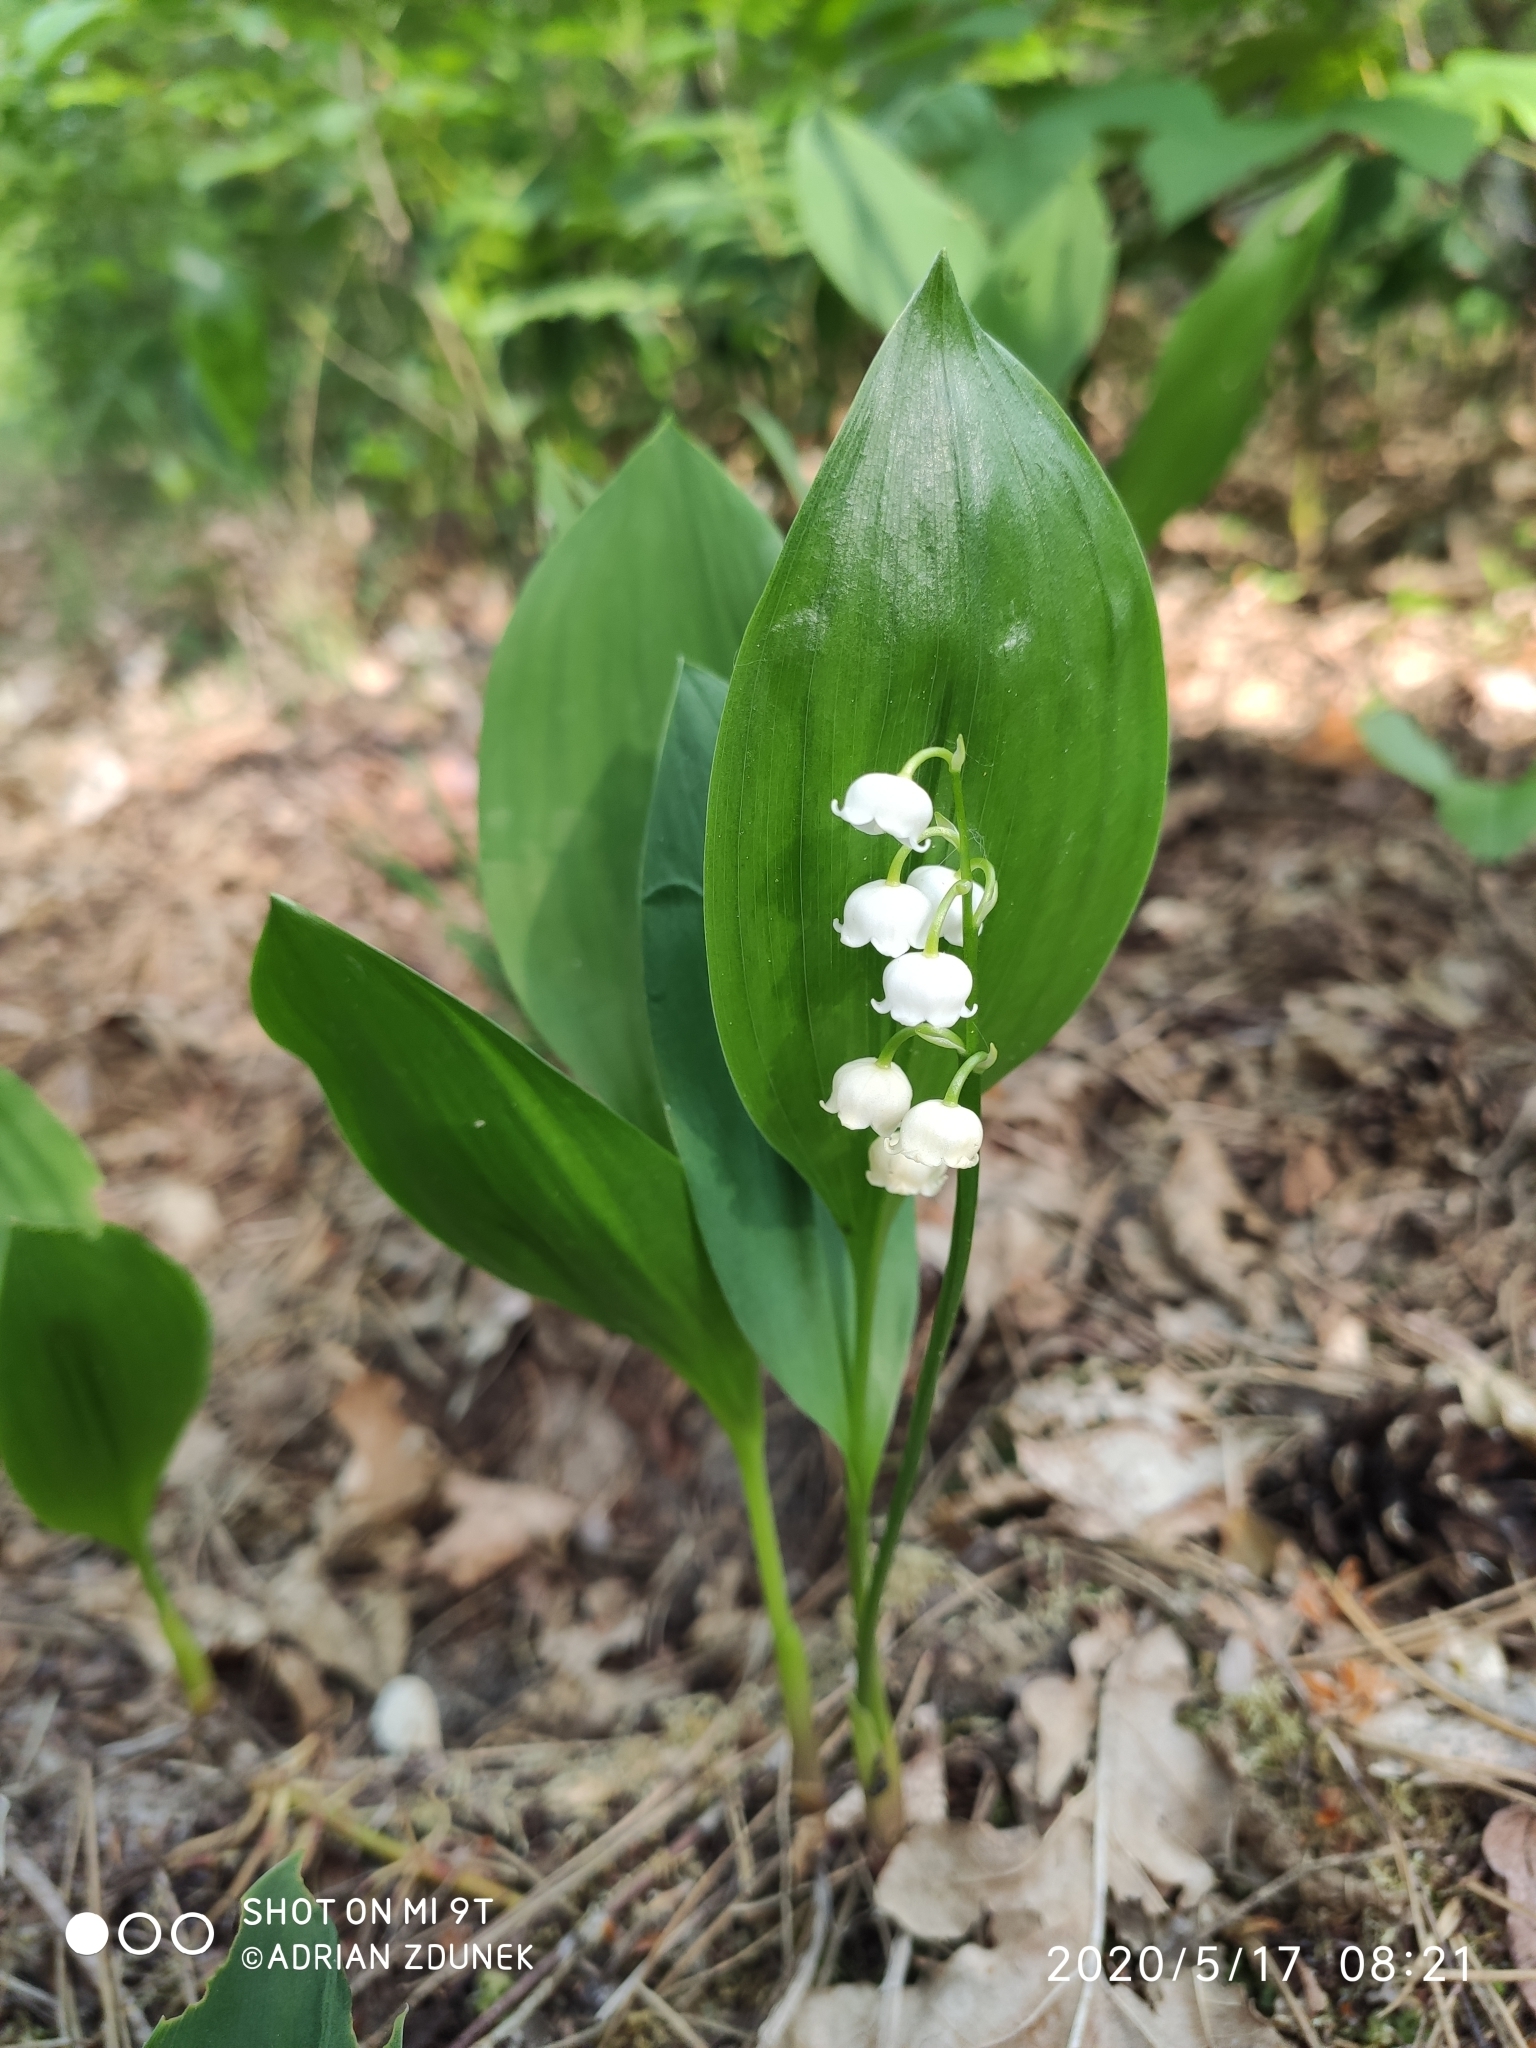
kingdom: Plantae
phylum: Tracheophyta
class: Liliopsida
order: Asparagales
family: Asparagaceae
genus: Convallaria
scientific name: Convallaria majalis
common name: Lily-of-the-valley
